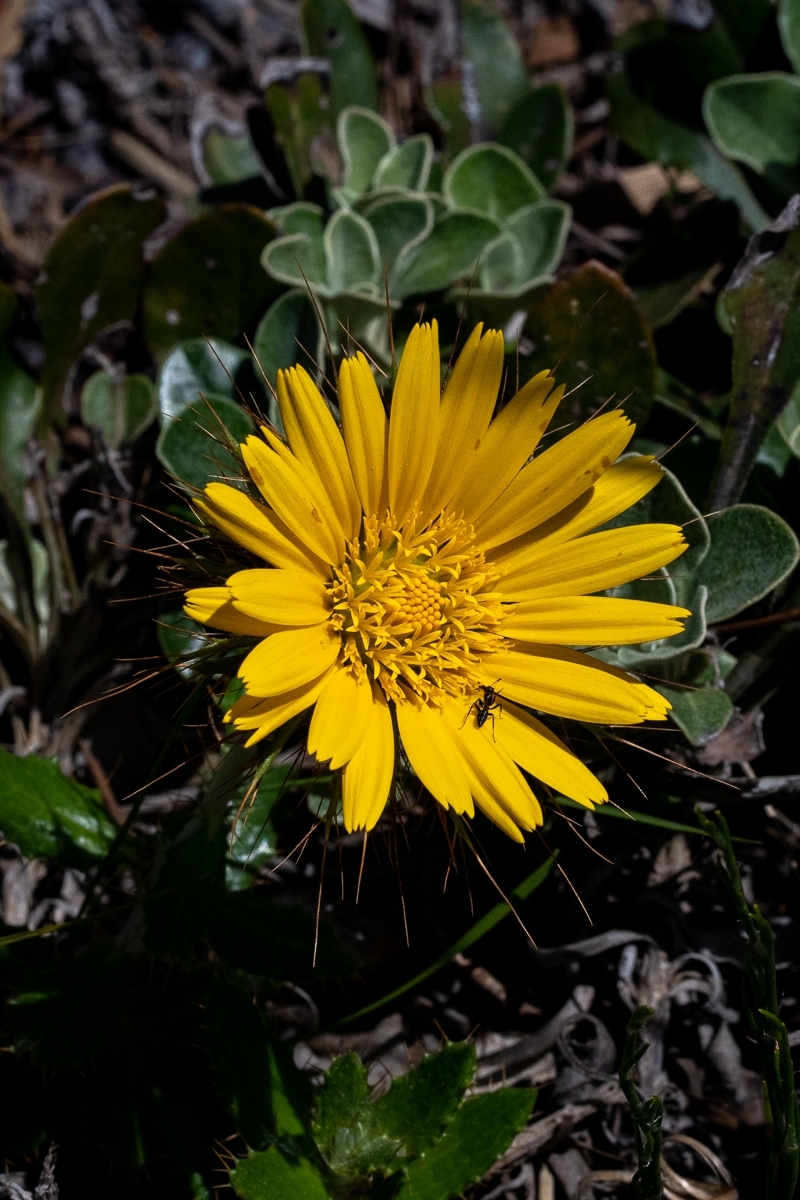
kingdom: Plantae
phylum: Tracheophyta
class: Magnoliopsida
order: Asterales
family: Asteraceae
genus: Berkheya
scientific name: Berkheya barbata
